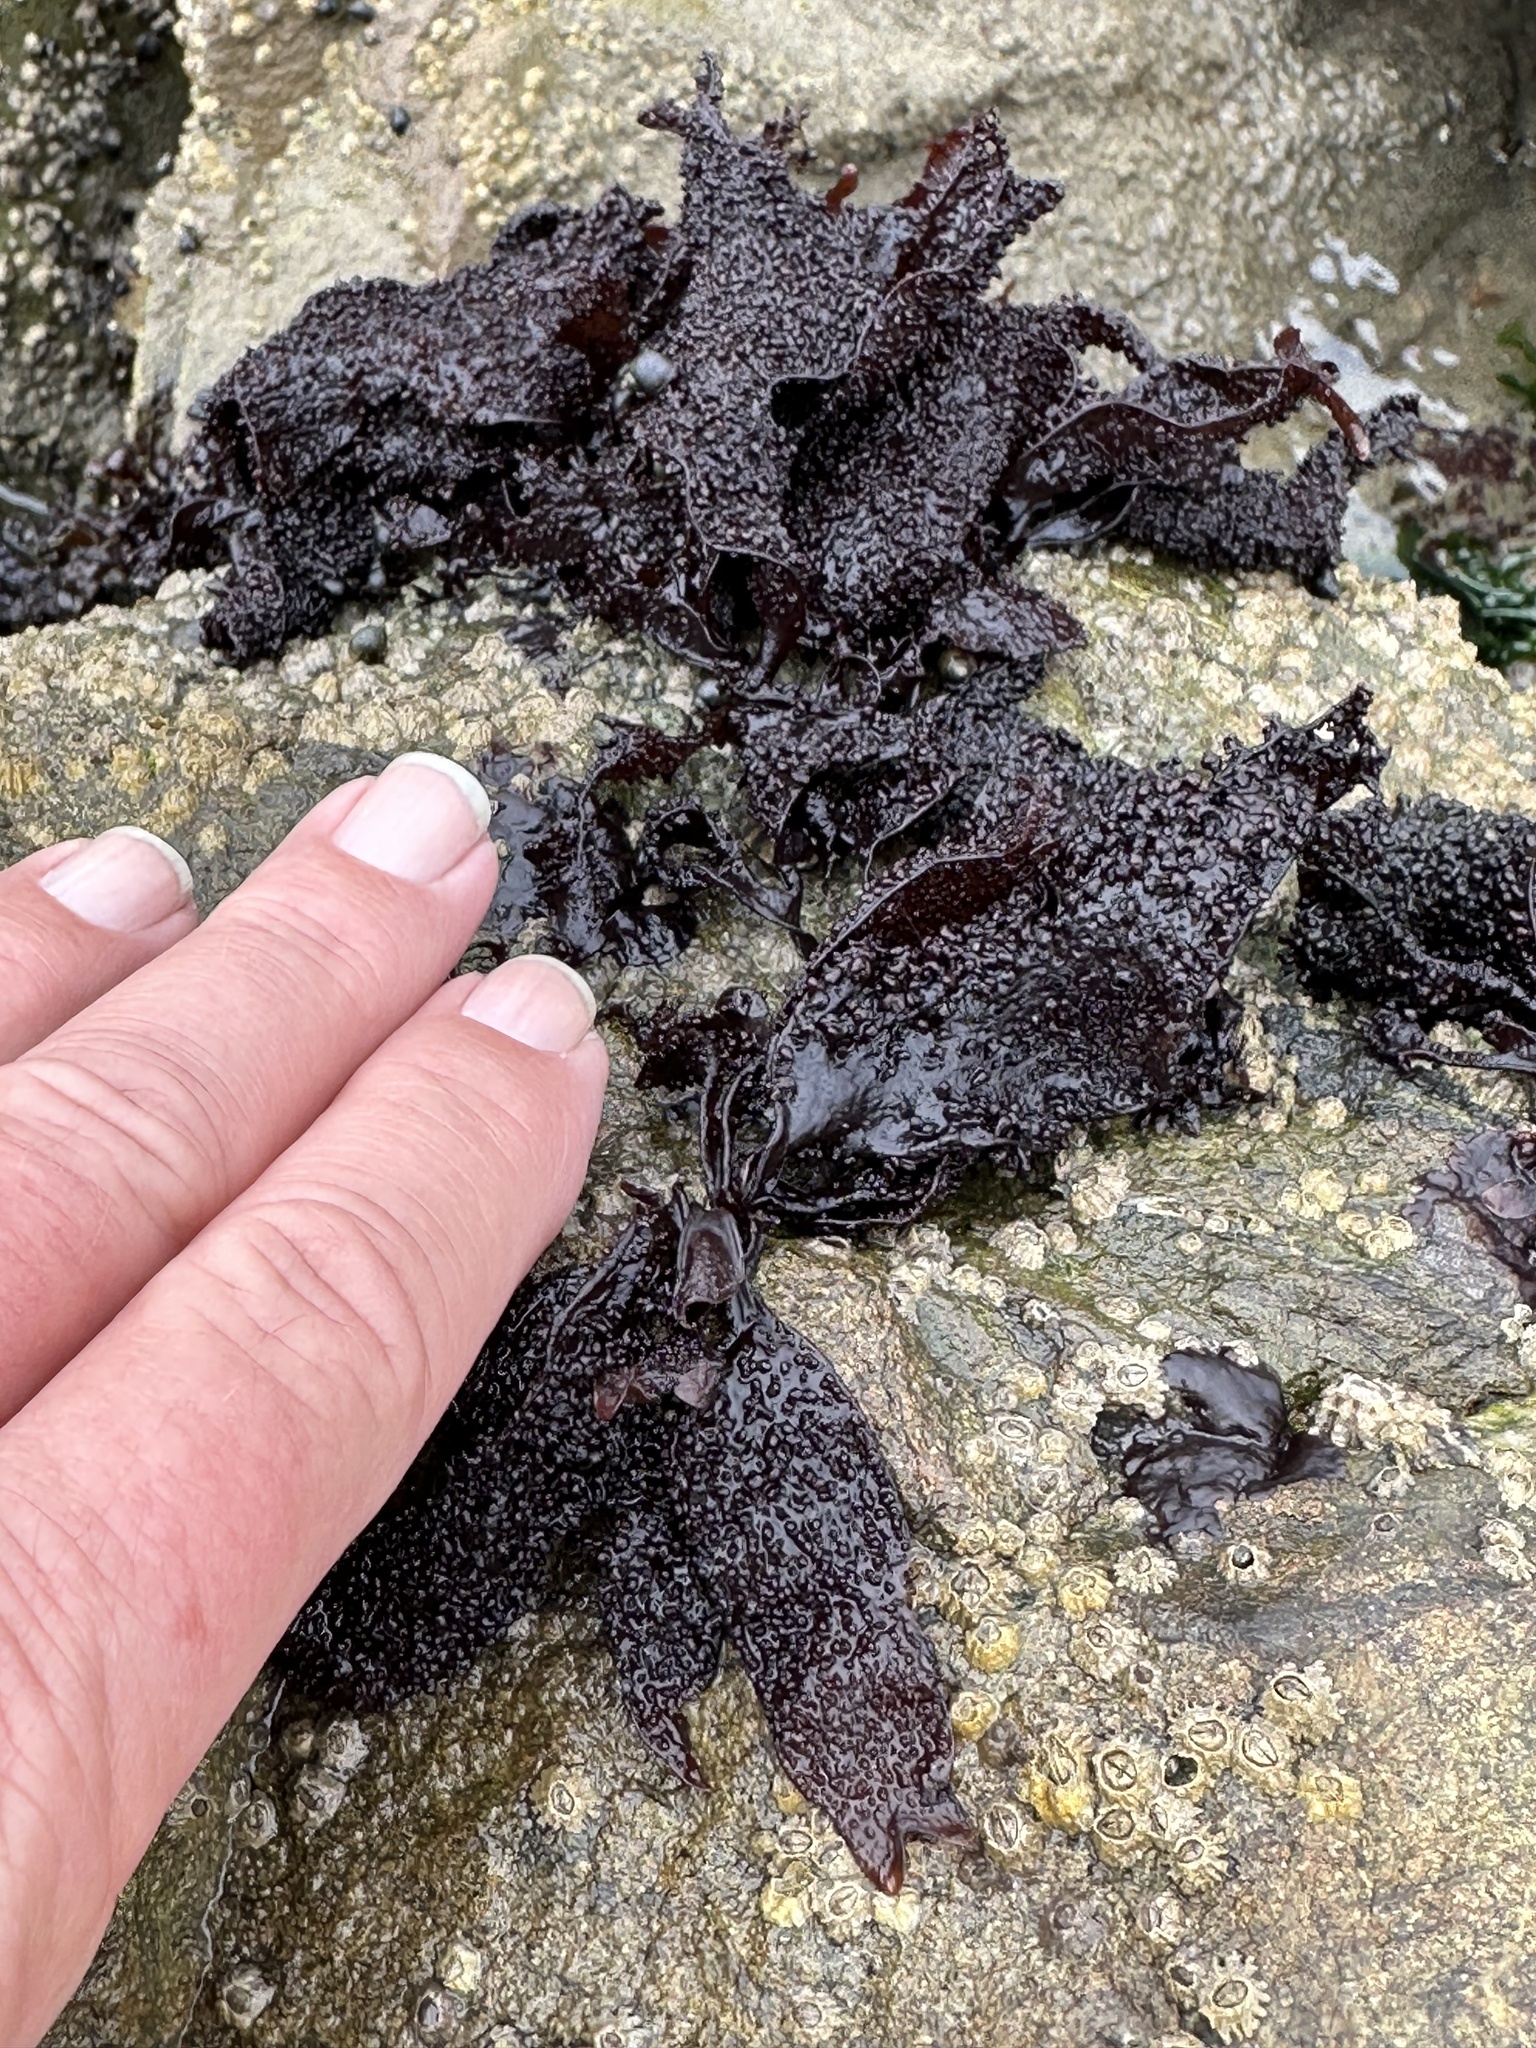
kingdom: Plantae
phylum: Rhodophyta
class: Florideophyceae
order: Gigartinales
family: Phyllophoraceae
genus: Mastocarpus
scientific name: Mastocarpus papillatus
